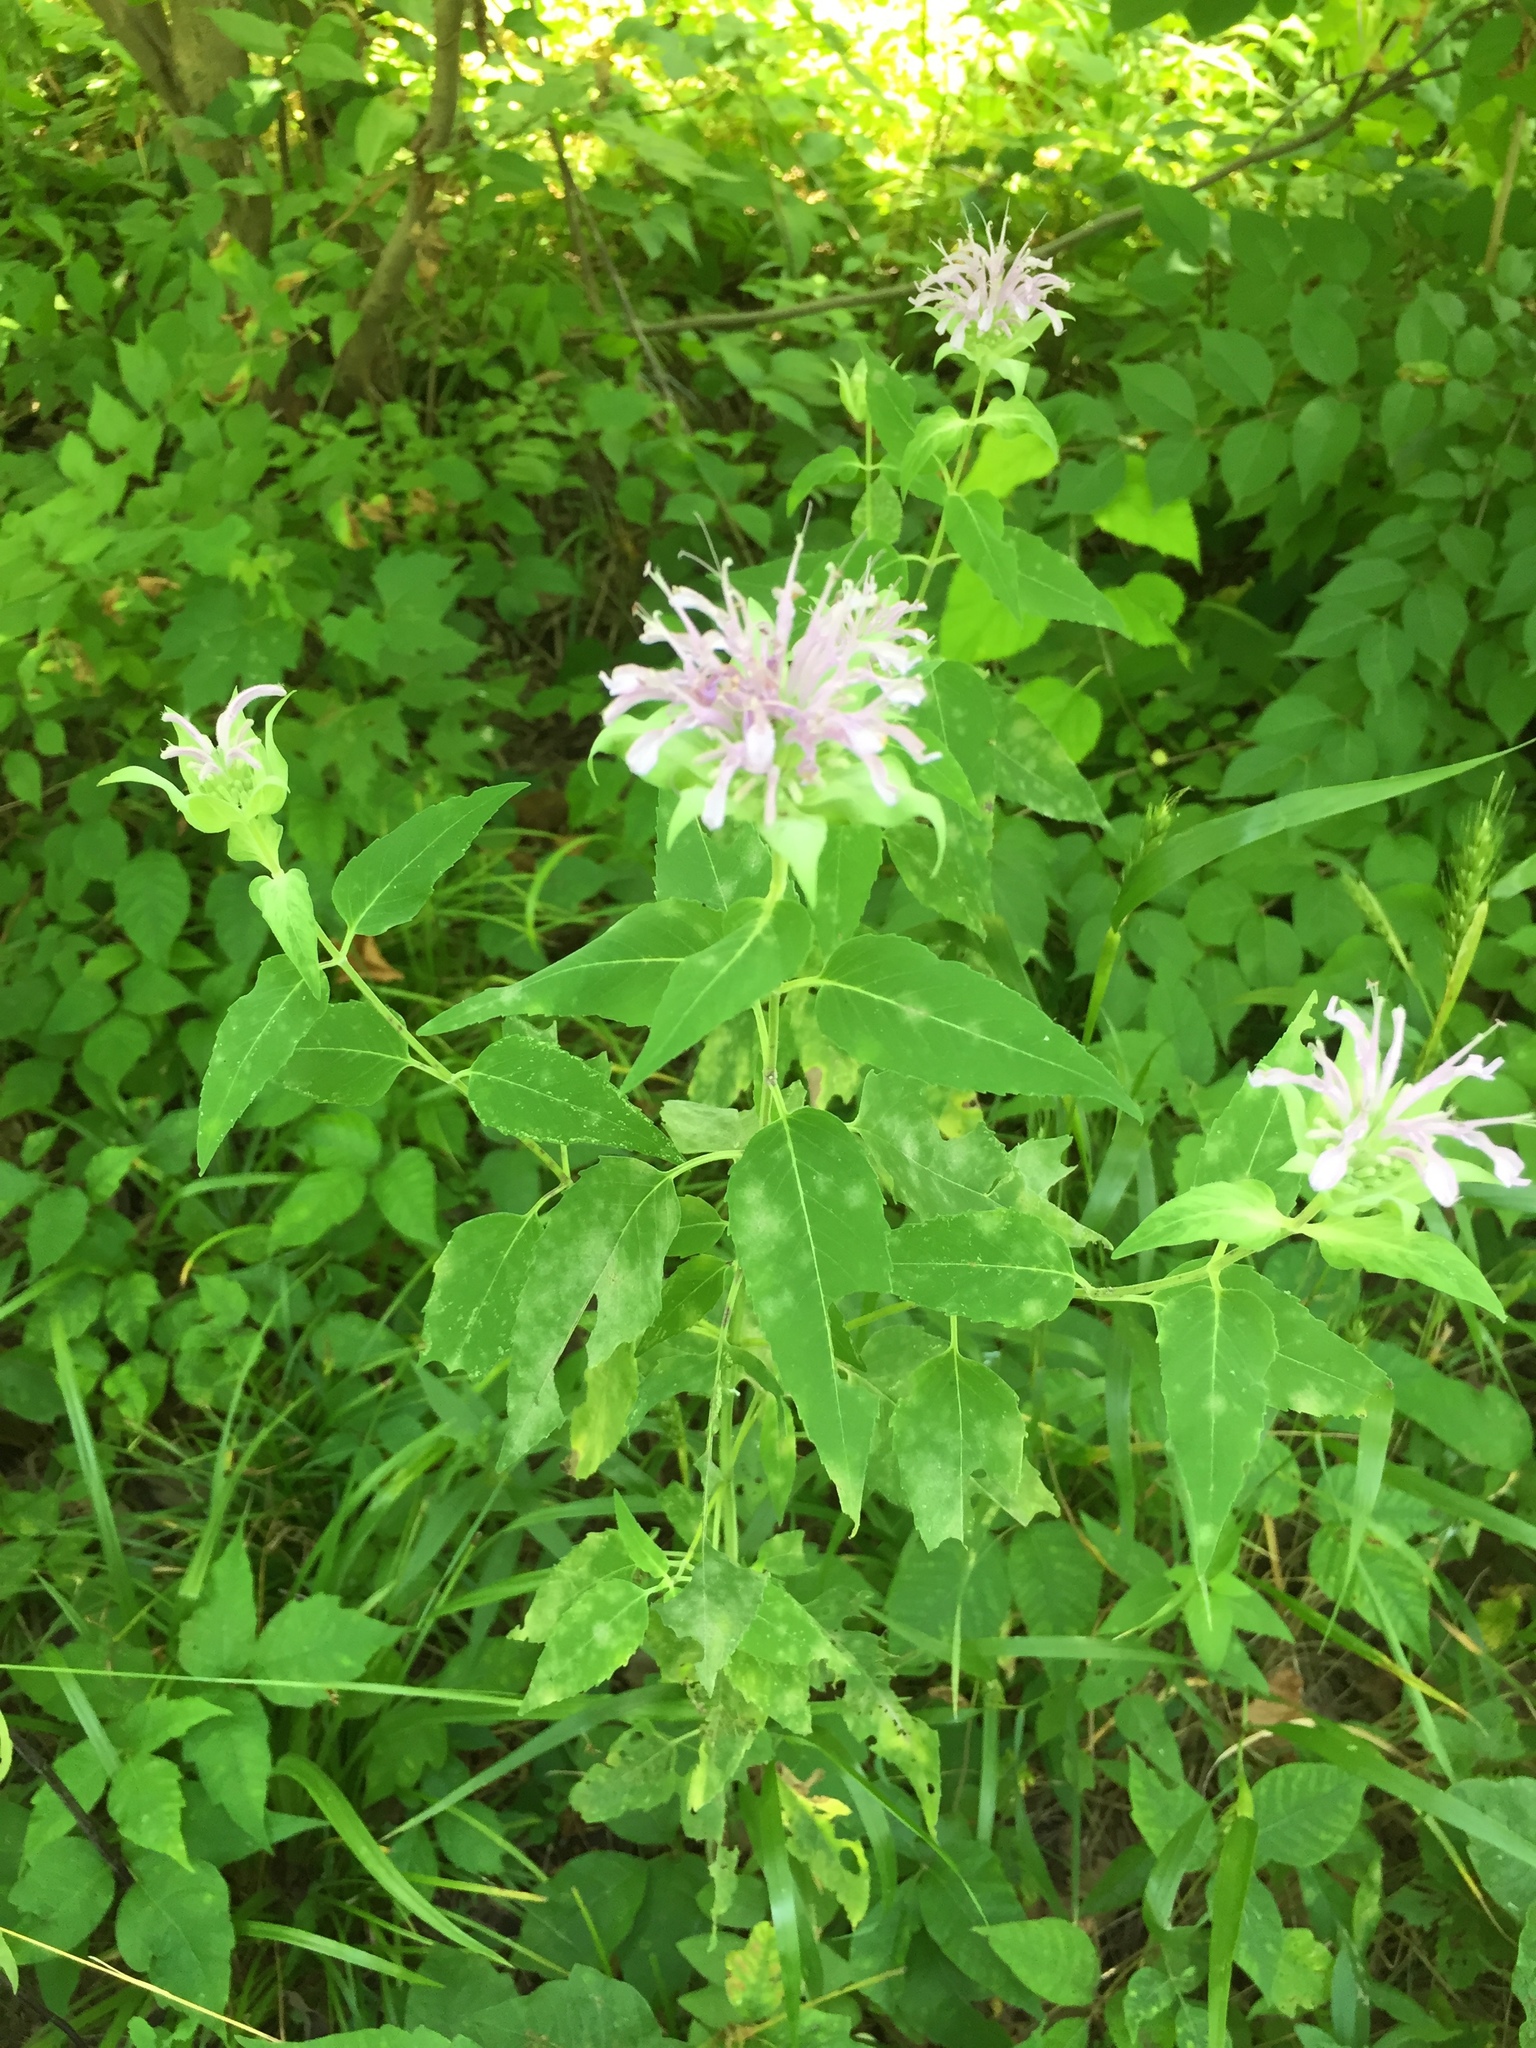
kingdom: Plantae
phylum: Tracheophyta
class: Magnoliopsida
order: Lamiales
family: Lamiaceae
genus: Monarda
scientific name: Monarda fistulosa
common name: Purple beebalm
